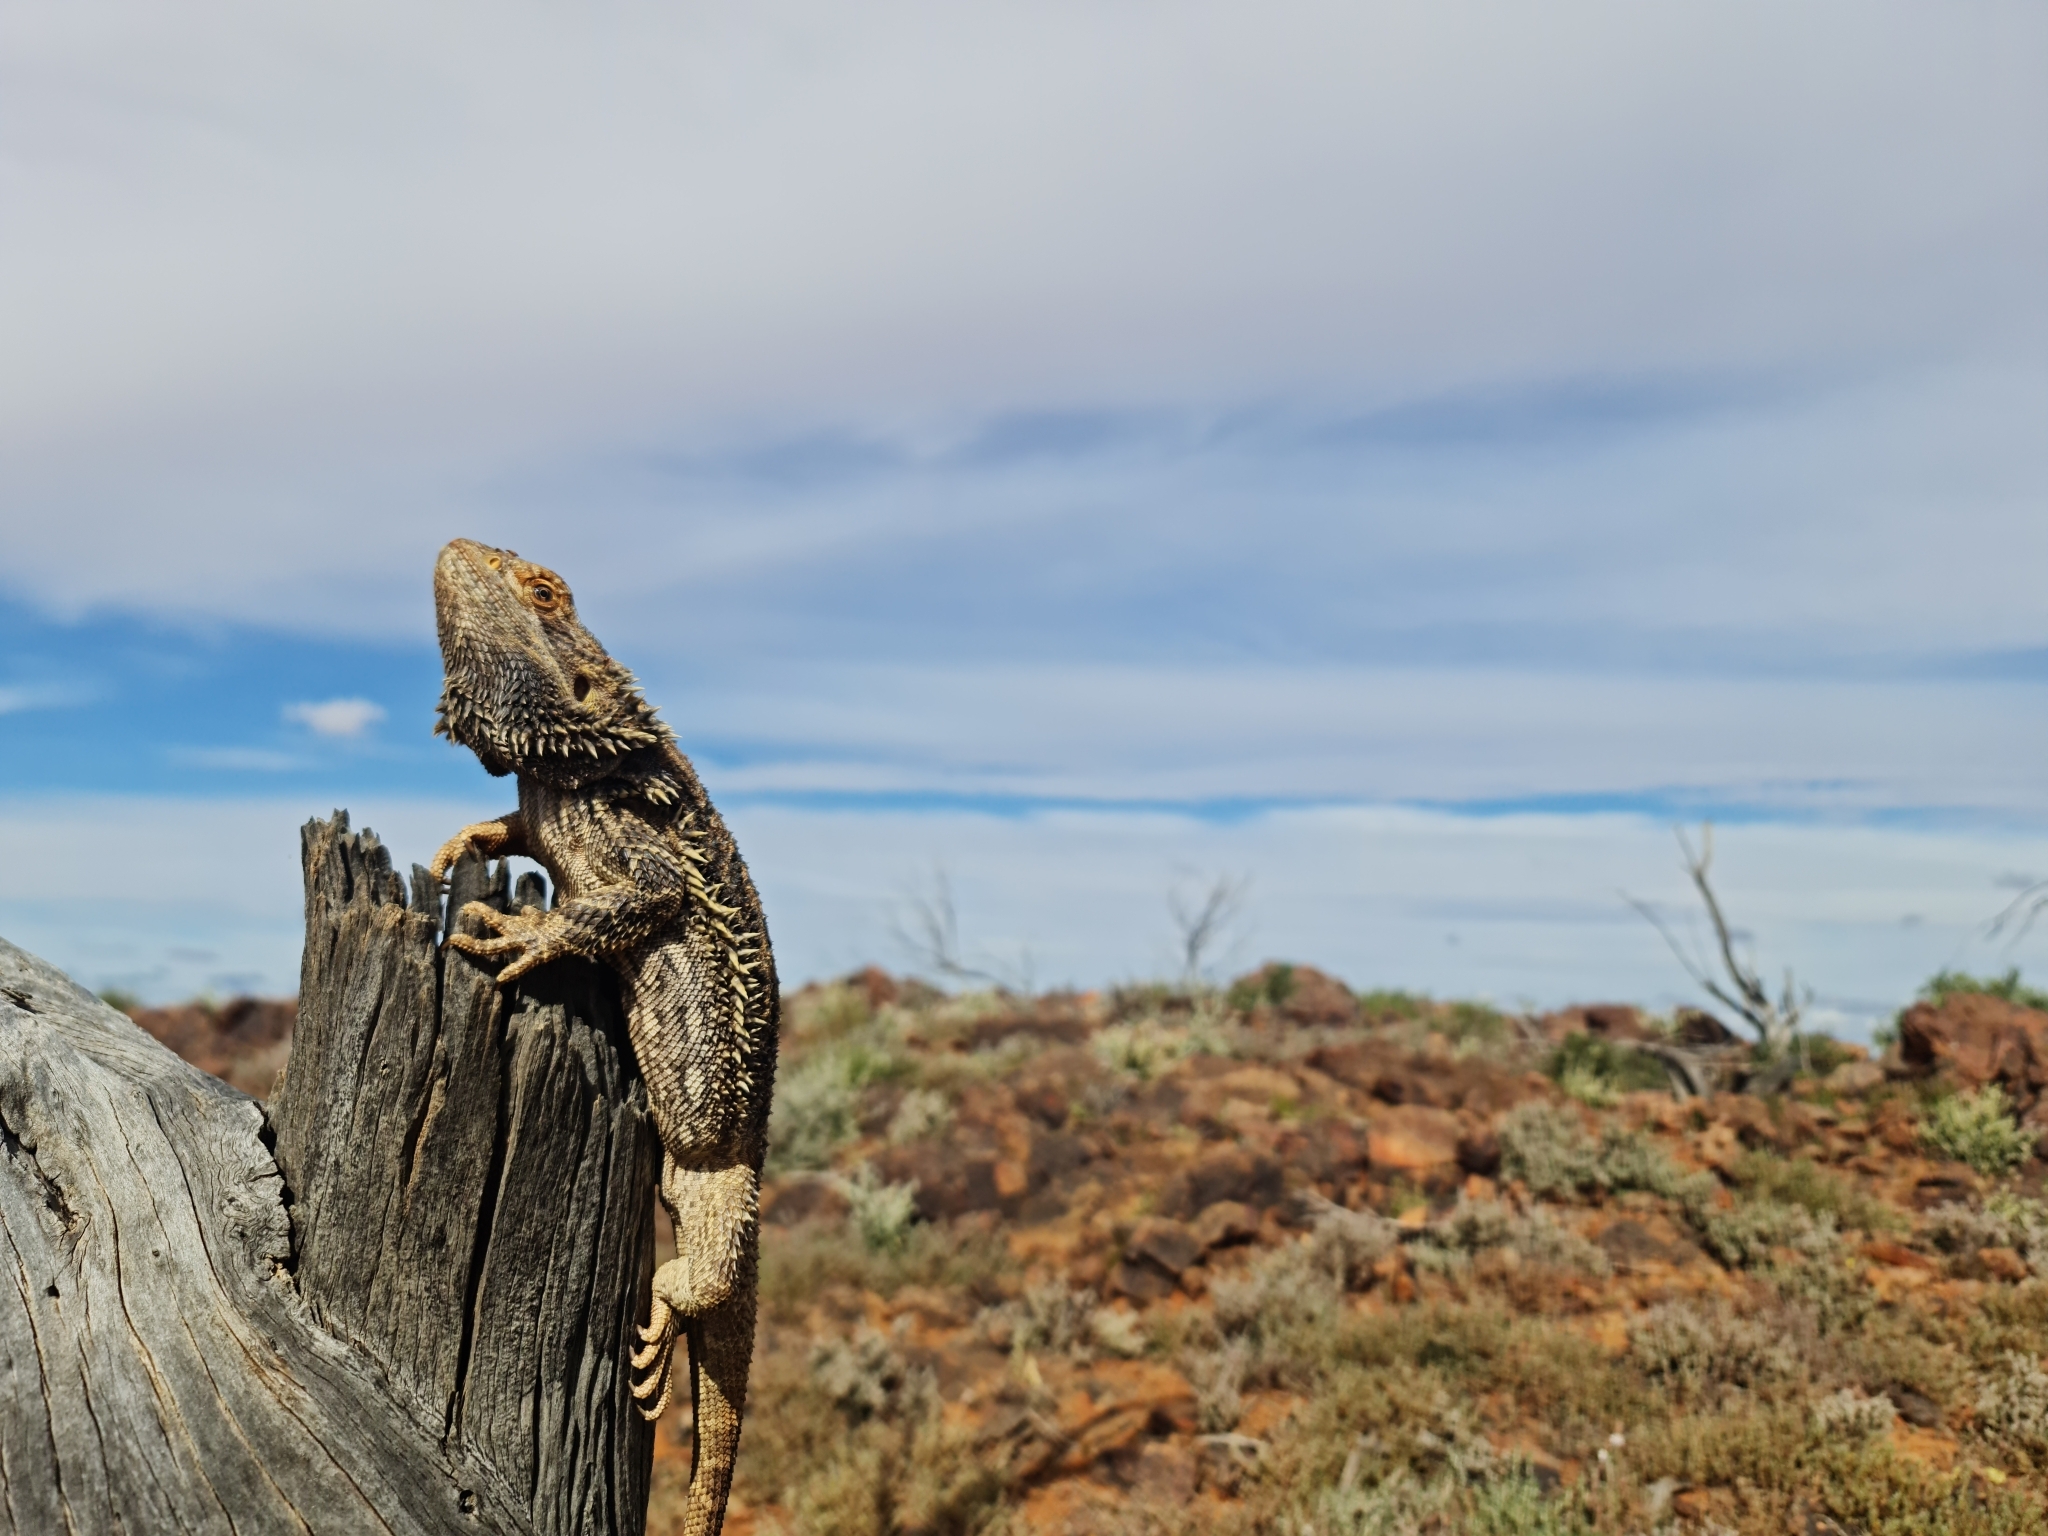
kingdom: Animalia
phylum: Chordata
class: Squamata
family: Agamidae
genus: Pogona
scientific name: Pogona vitticeps
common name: Central bearded dragon
